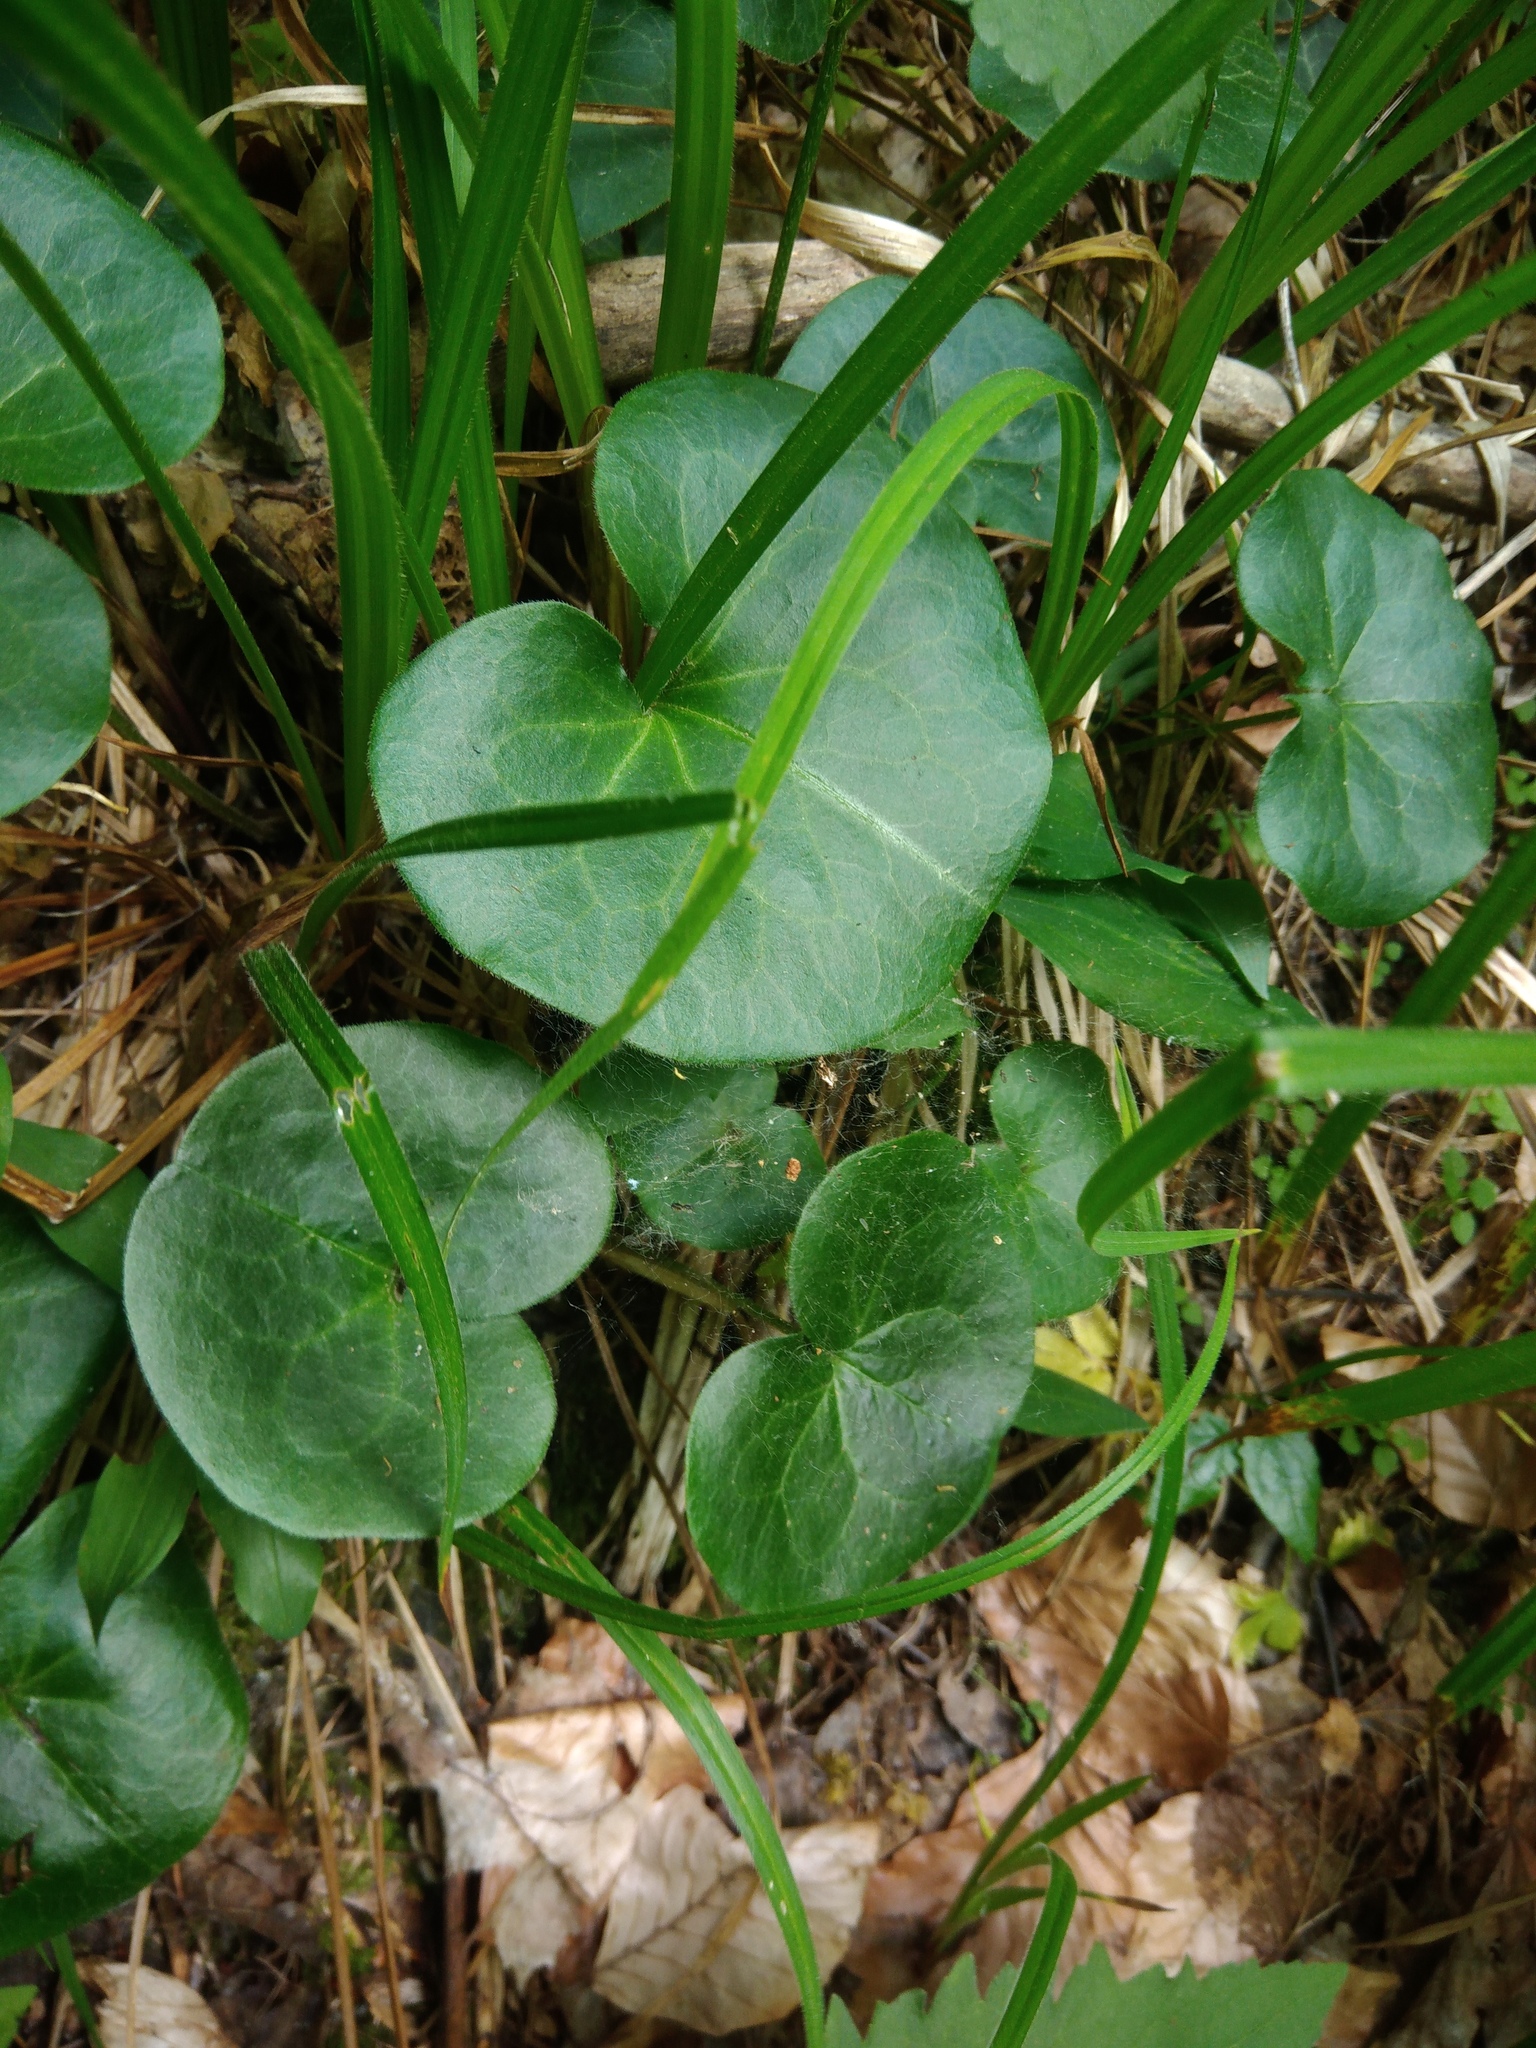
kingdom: Plantae
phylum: Tracheophyta
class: Magnoliopsida
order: Piperales
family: Aristolochiaceae
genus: Asarum
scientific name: Asarum europaeum
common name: Asarabacca
